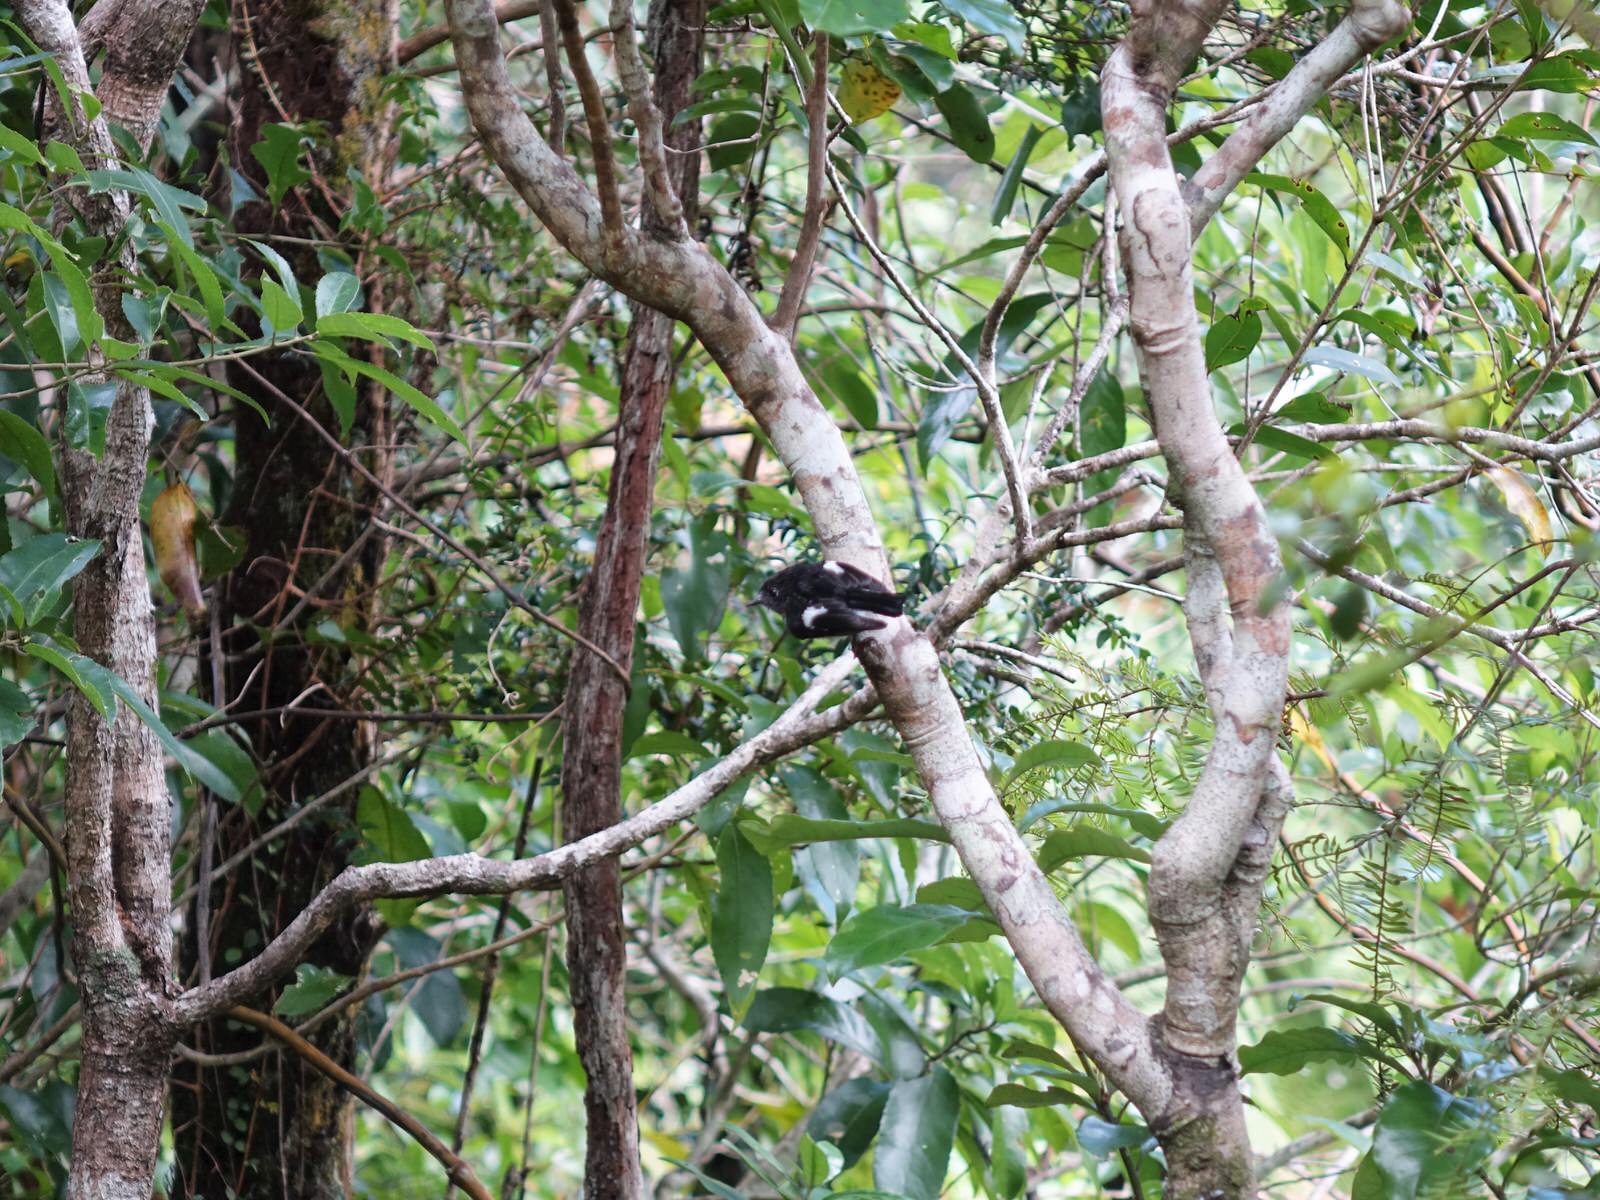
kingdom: Animalia
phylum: Chordata
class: Aves
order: Passeriformes
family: Petroicidae
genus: Petroica
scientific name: Petroica macrocephala
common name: Tomtit
